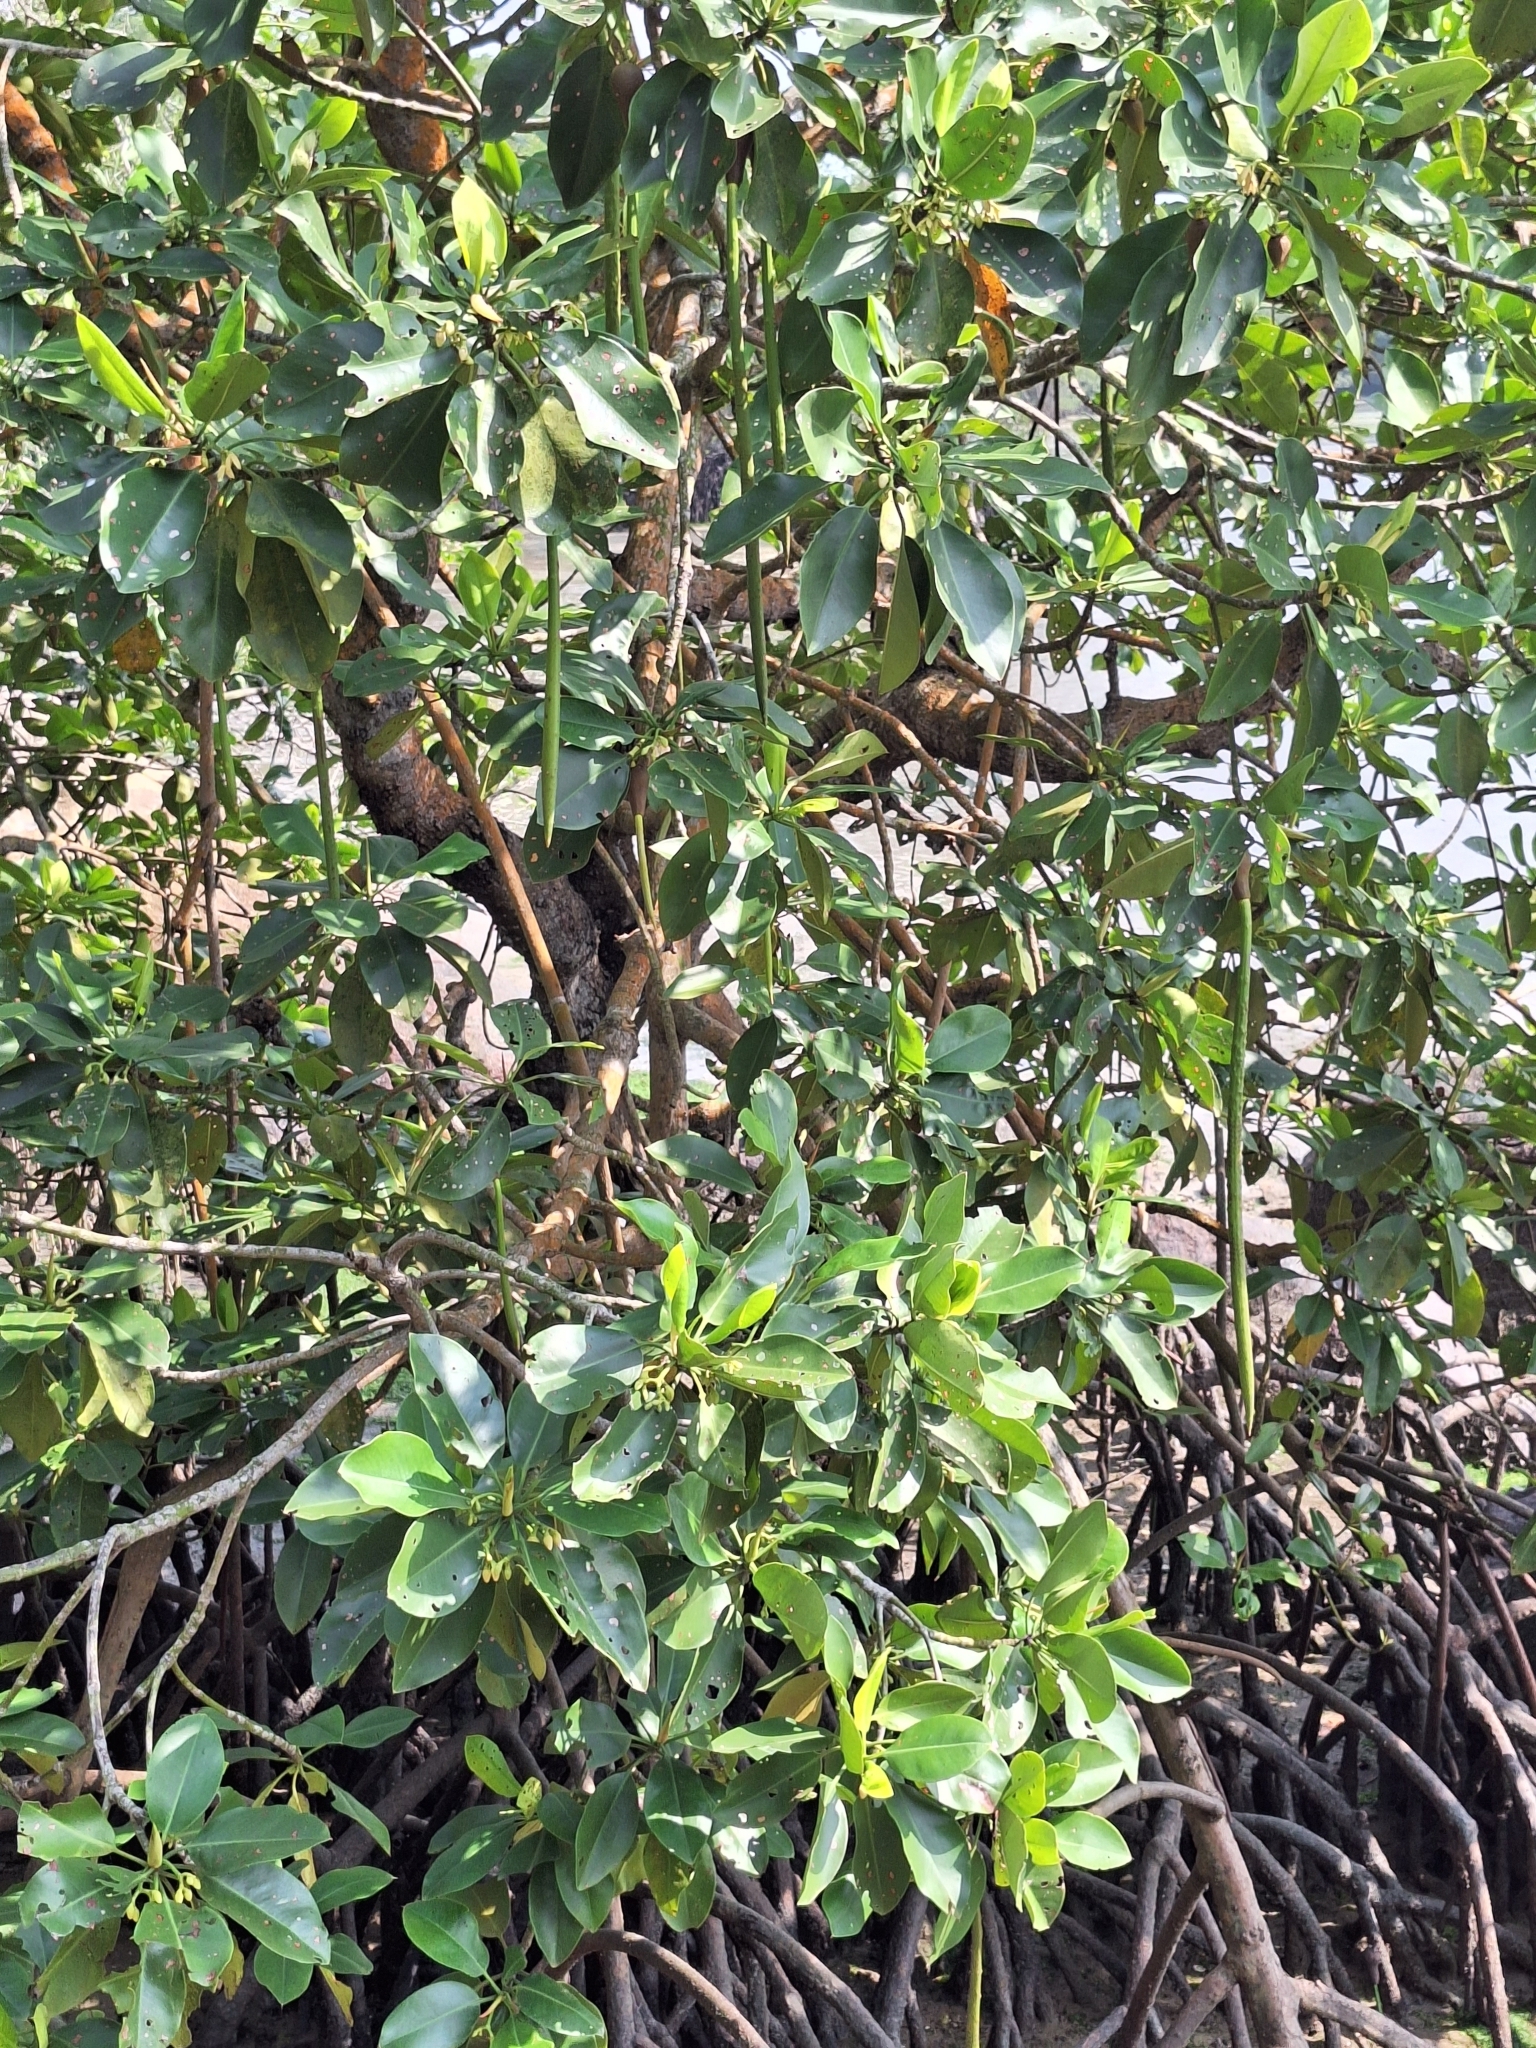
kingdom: Plantae
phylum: Tracheophyta
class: Magnoliopsida
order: Malpighiales
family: Rhizophoraceae
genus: Rhizophora
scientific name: Rhizophora mucronata
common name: Loop-root mangrove
